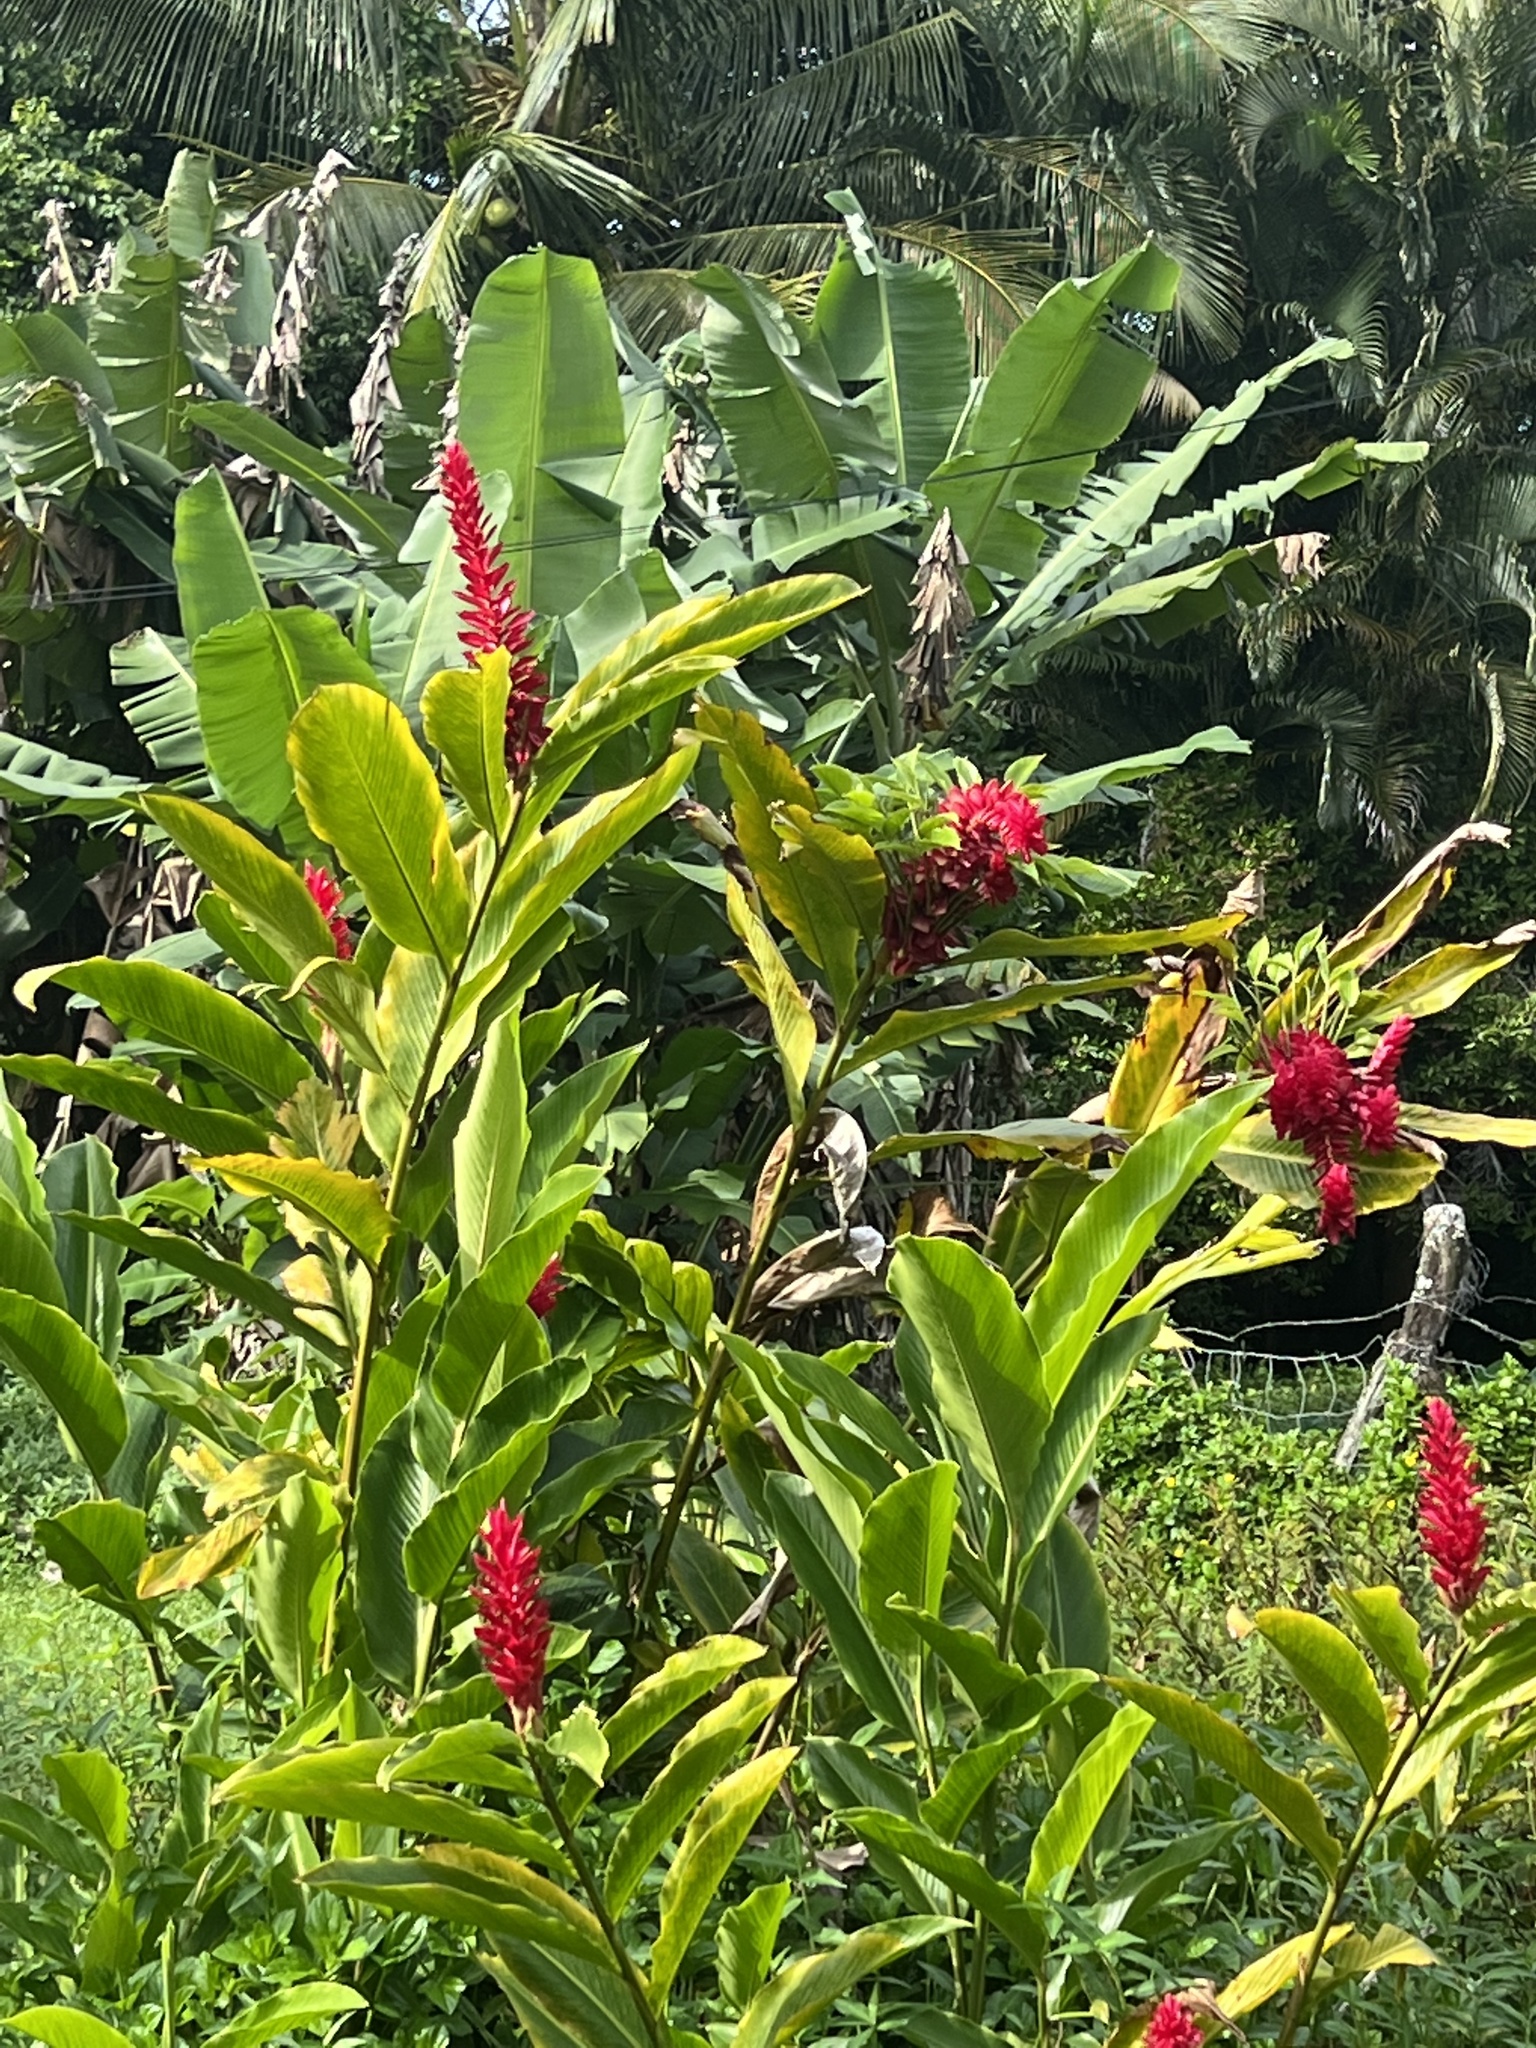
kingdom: Plantae
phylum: Tracheophyta
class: Liliopsida
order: Zingiberales
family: Zingiberaceae
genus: Alpinia
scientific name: Alpinia purpurata
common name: Red ginger
